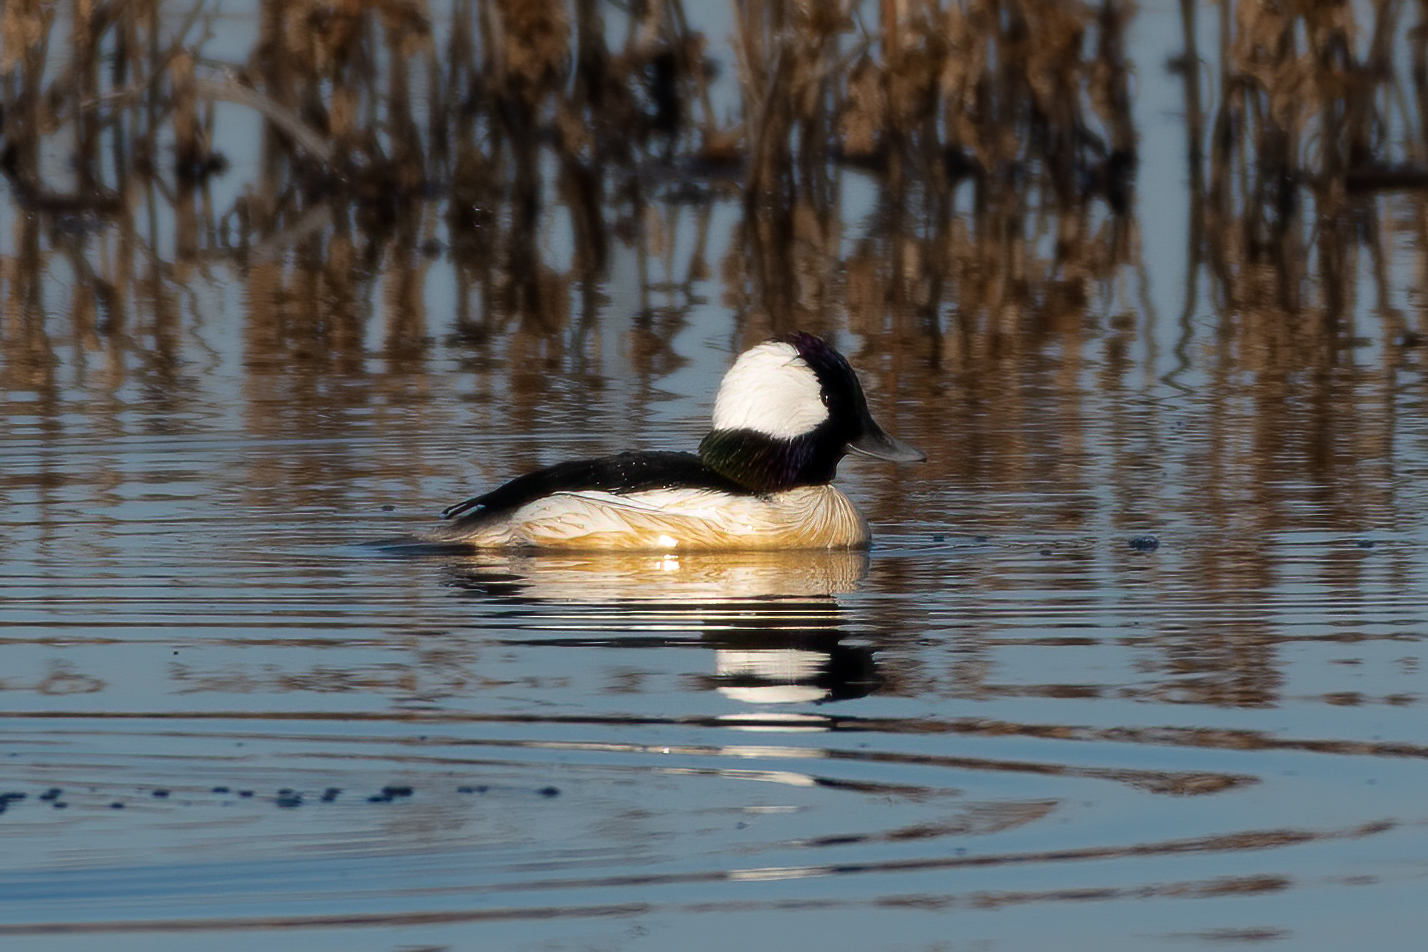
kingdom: Animalia
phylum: Chordata
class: Aves
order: Anseriformes
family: Anatidae
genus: Bucephala
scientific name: Bucephala albeola
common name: Bufflehead
